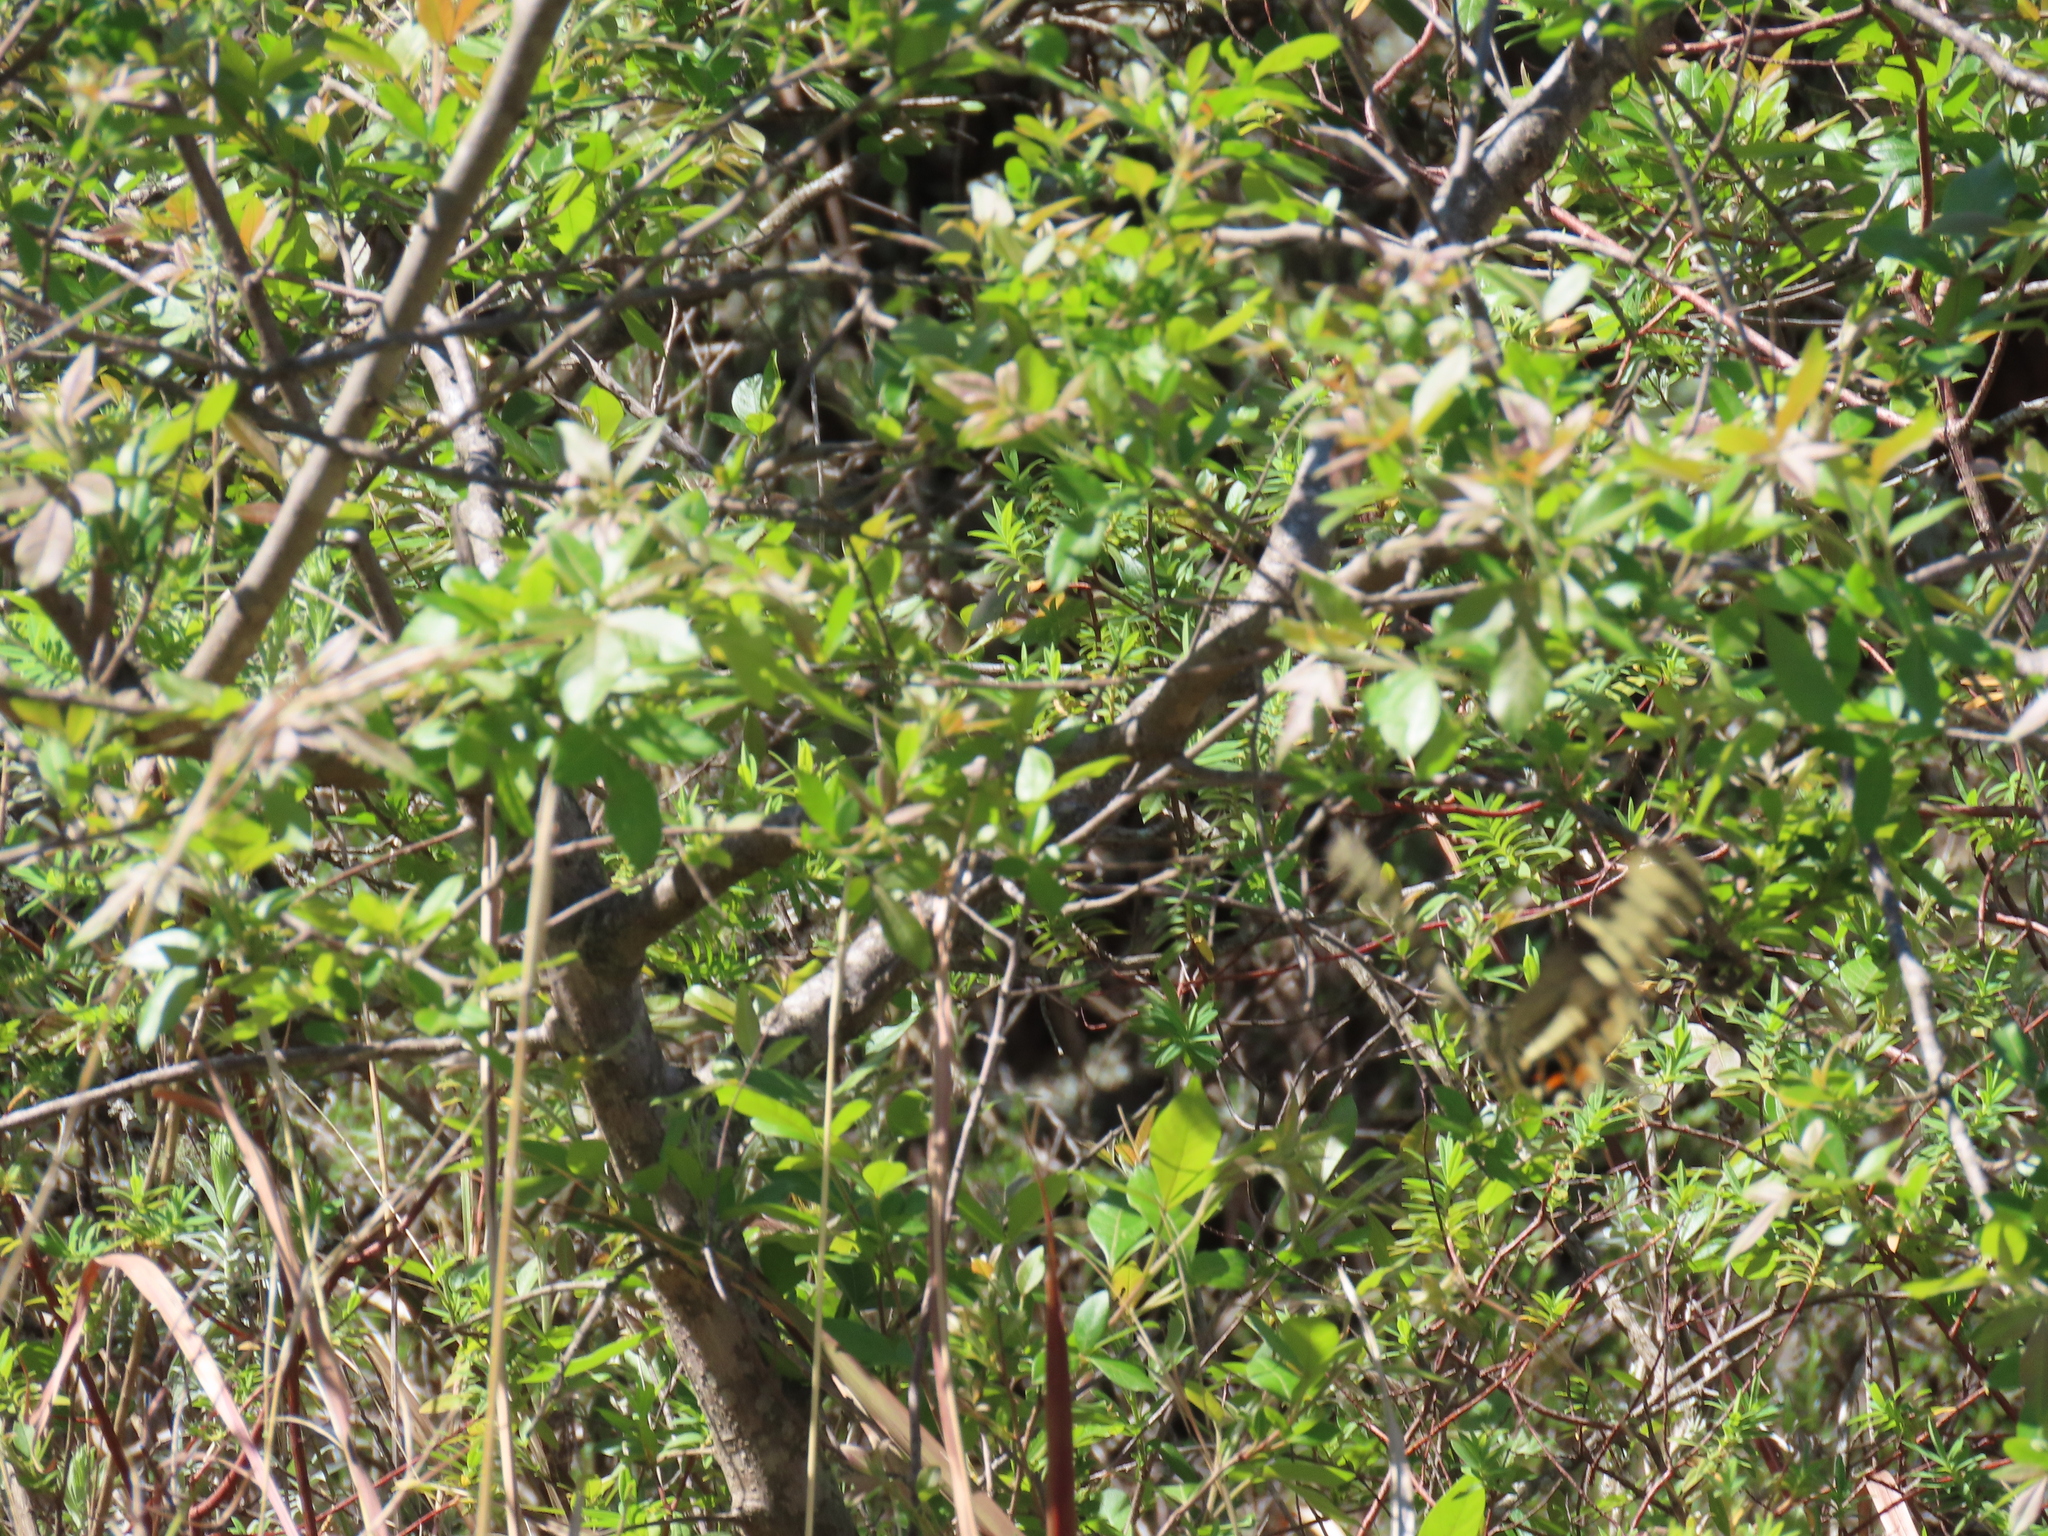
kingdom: Animalia
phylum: Arthropoda
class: Insecta
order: Lepidoptera
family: Papilionidae
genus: Papilio
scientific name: Papilio ophidicephalus
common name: Emperor swallowtail
